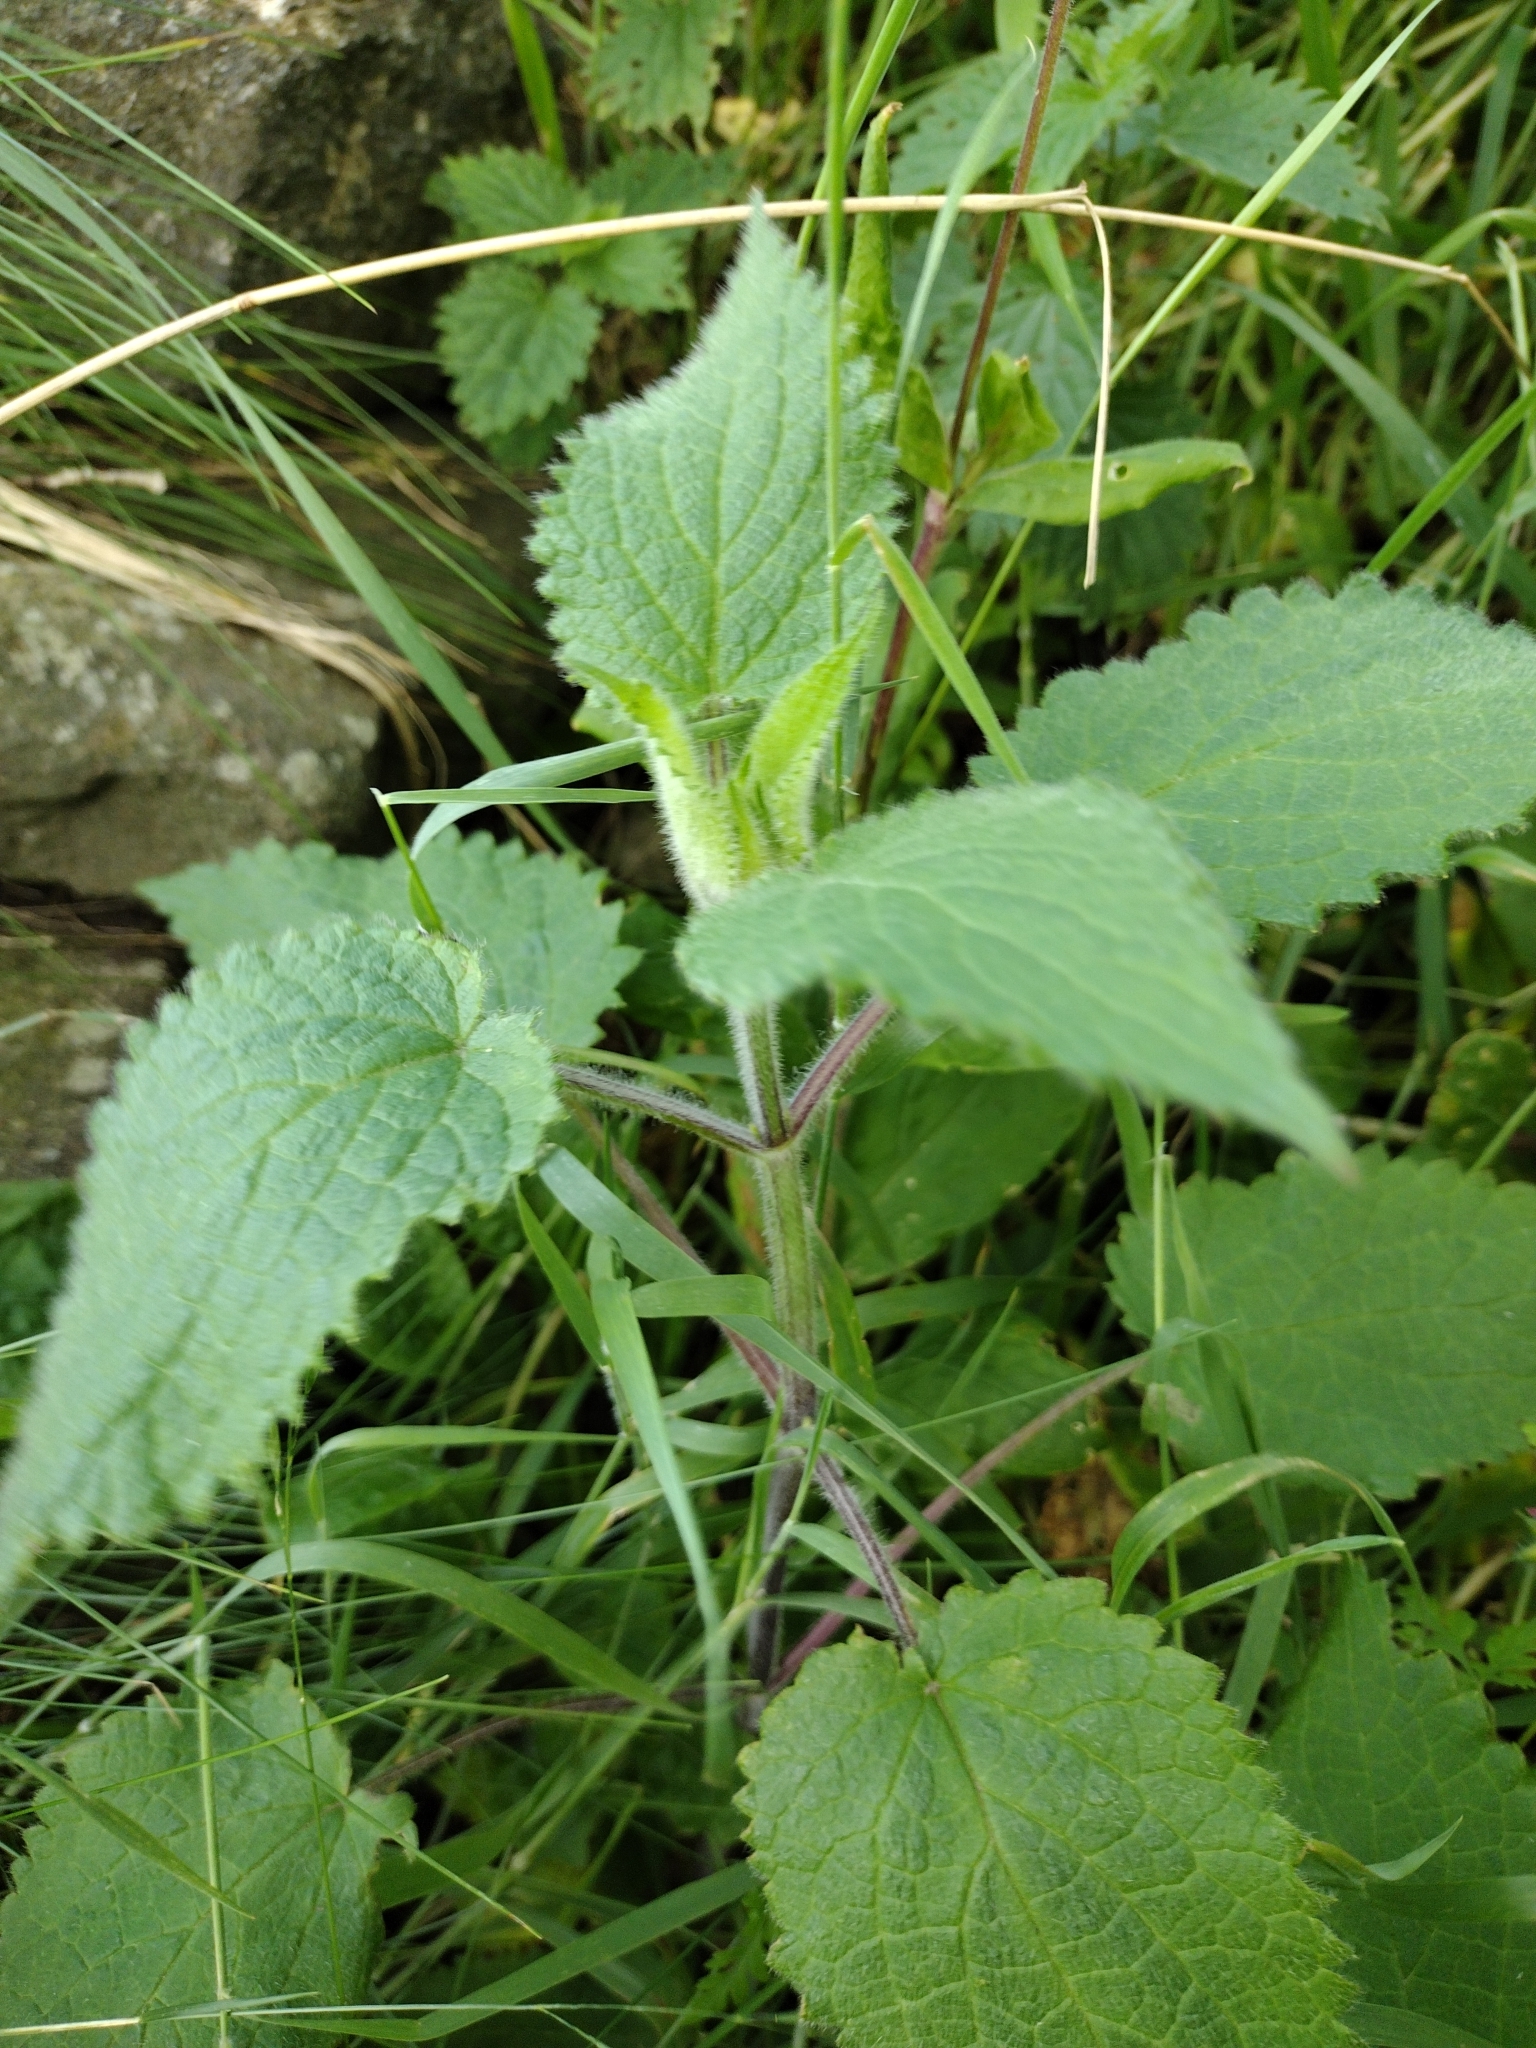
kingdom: Plantae
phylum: Tracheophyta
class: Magnoliopsida
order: Lamiales
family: Lamiaceae
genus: Stachys
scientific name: Stachys sylvatica
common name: Hedge woundwort
